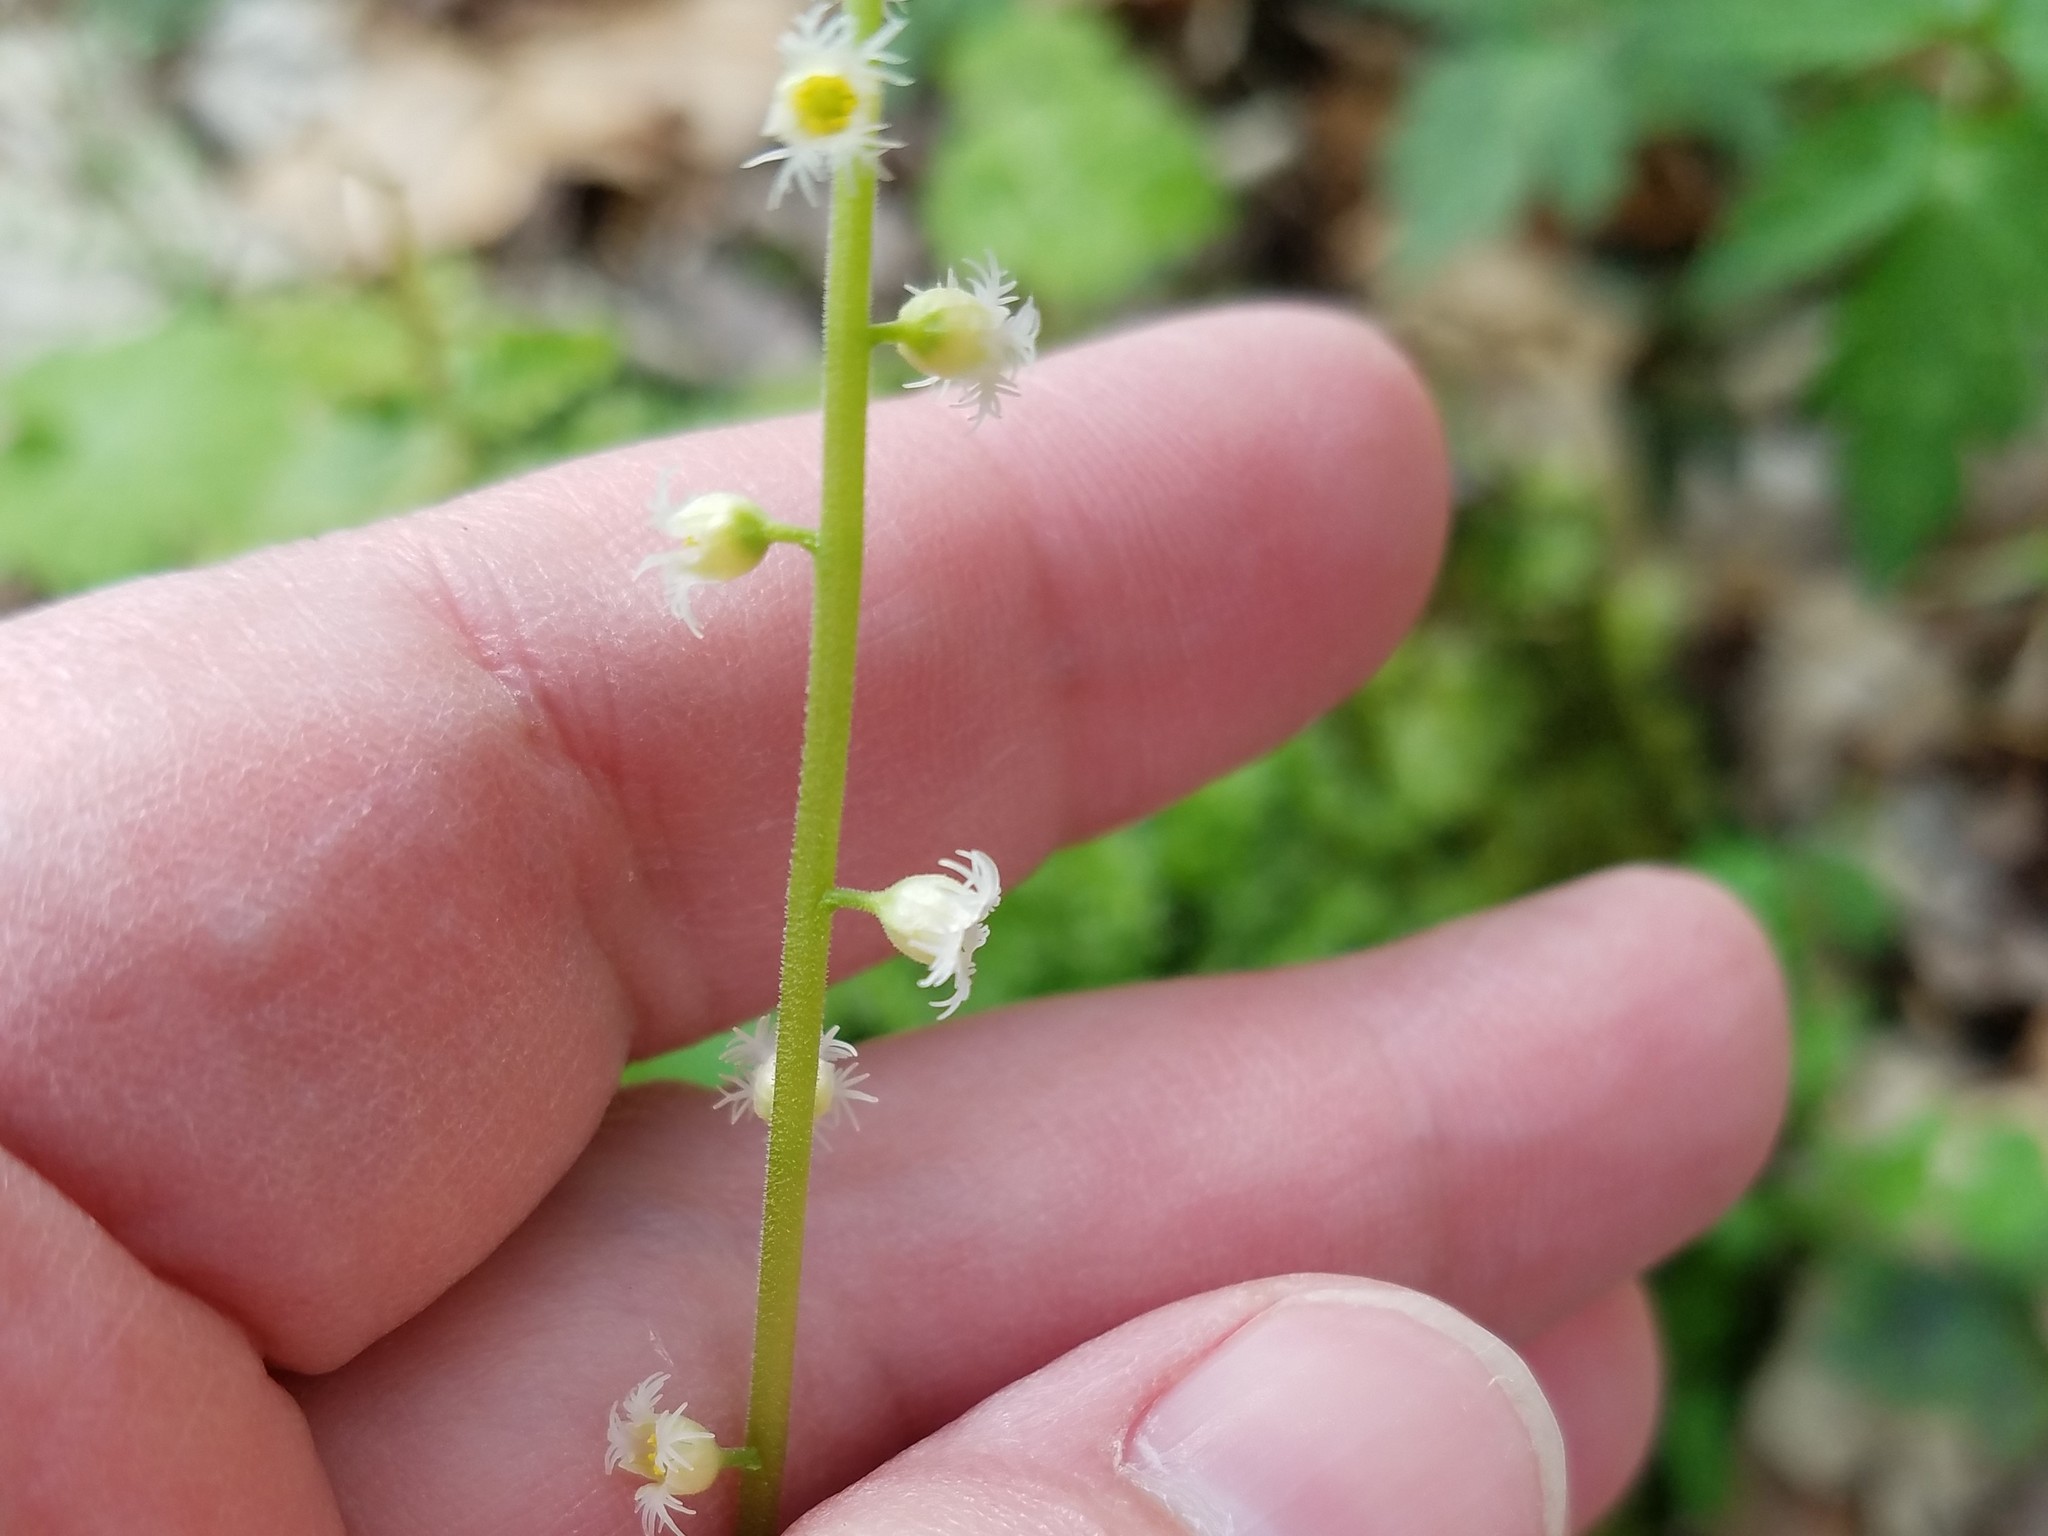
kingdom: Plantae
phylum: Tracheophyta
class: Magnoliopsida
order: Saxifragales
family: Saxifragaceae
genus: Mitella
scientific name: Mitella diphylla
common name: Coolwort
